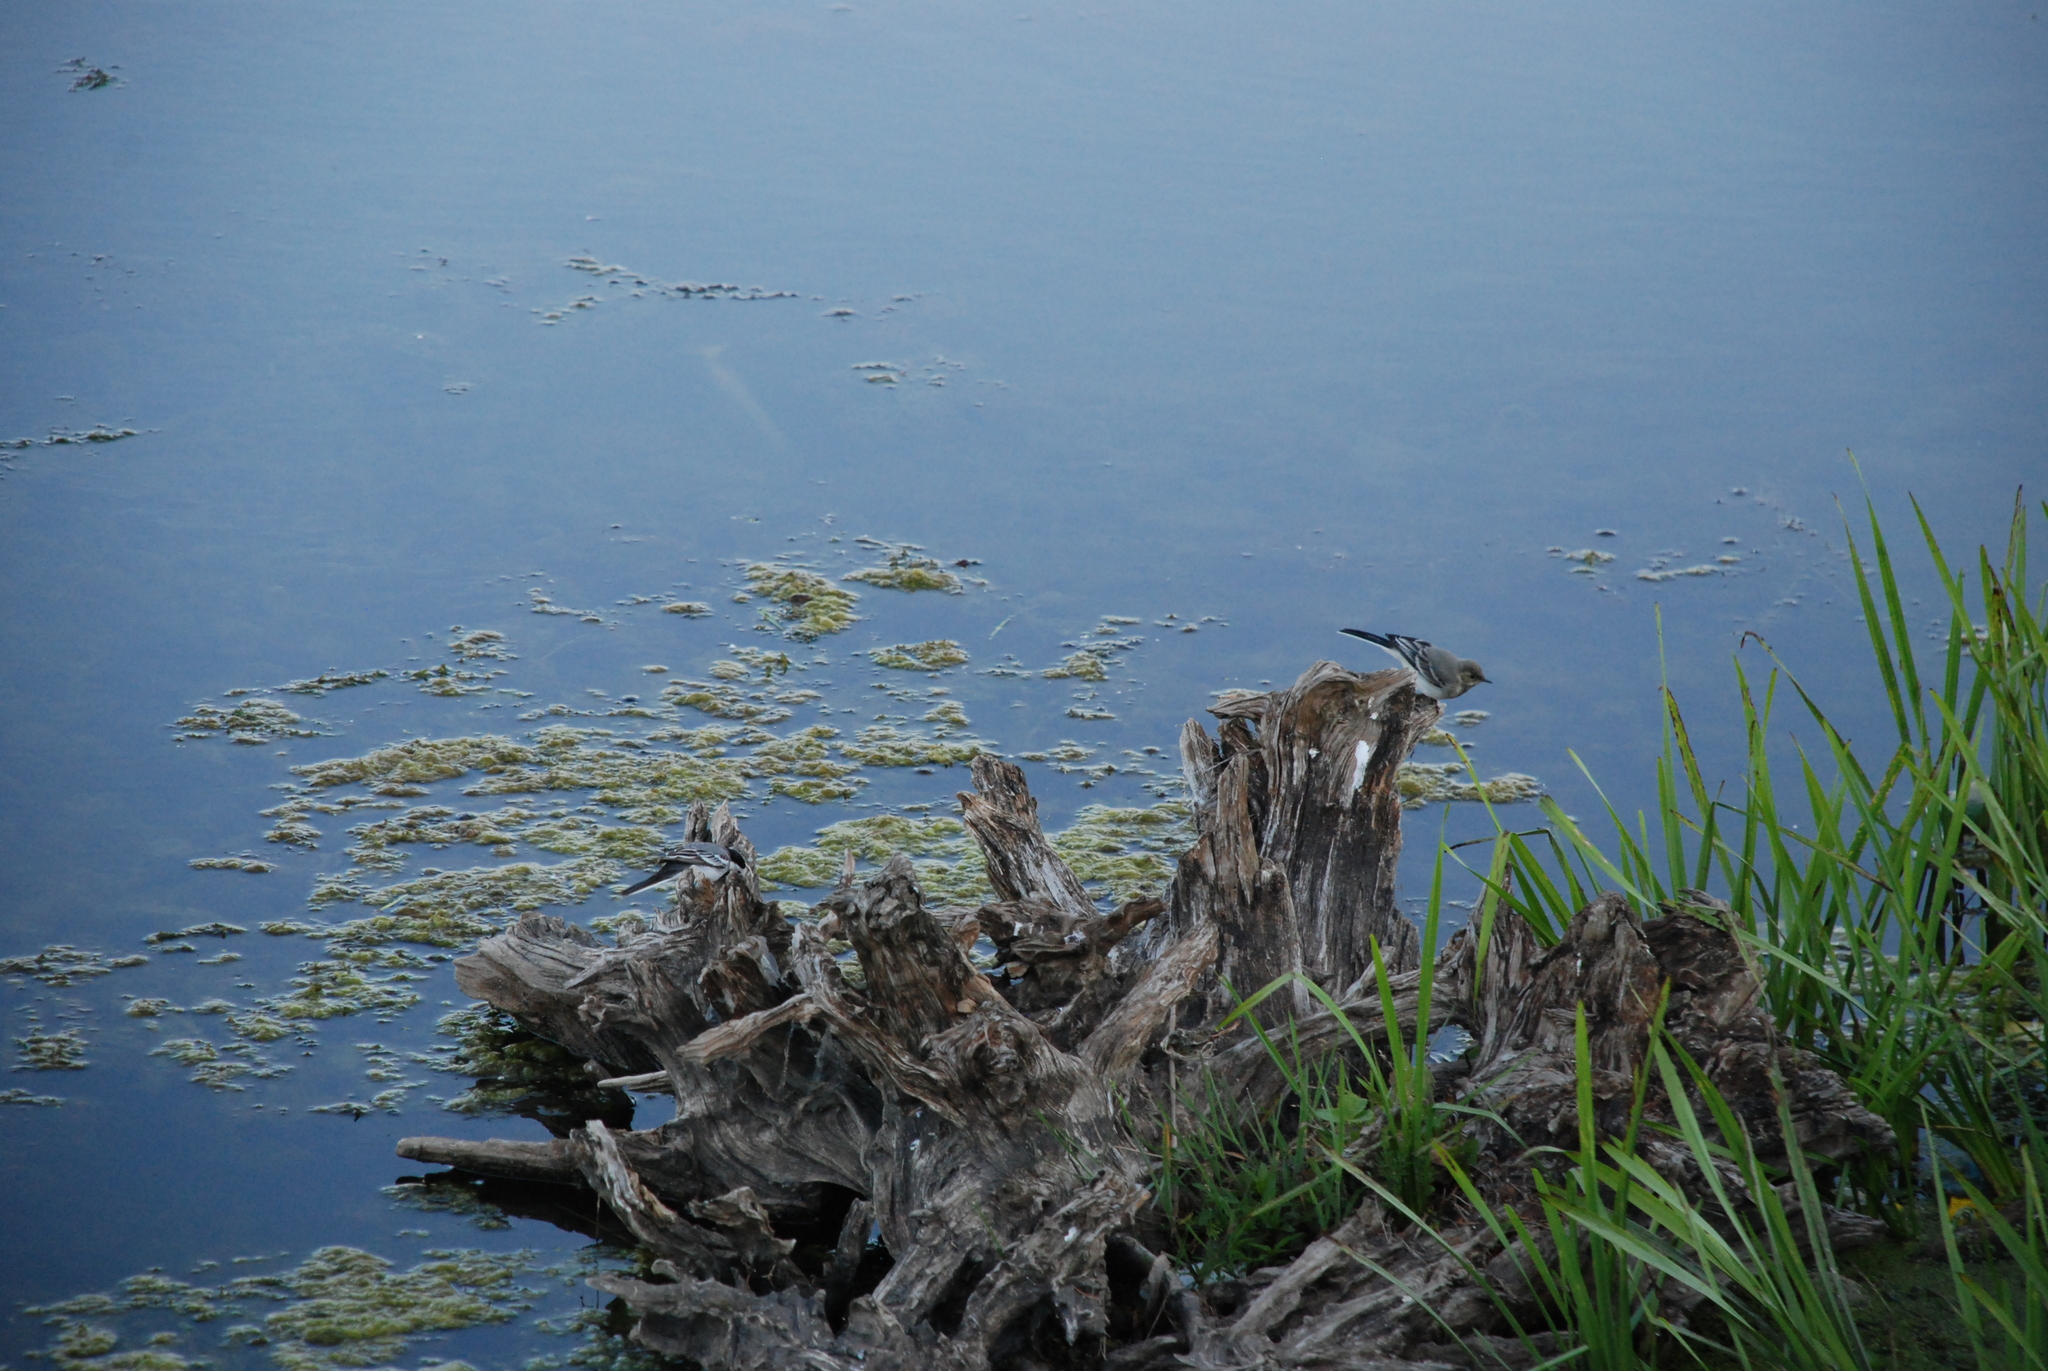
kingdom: Animalia
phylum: Chordata
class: Aves
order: Passeriformes
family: Motacillidae
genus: Motacilla
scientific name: Motacilla alba
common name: White wagtail
